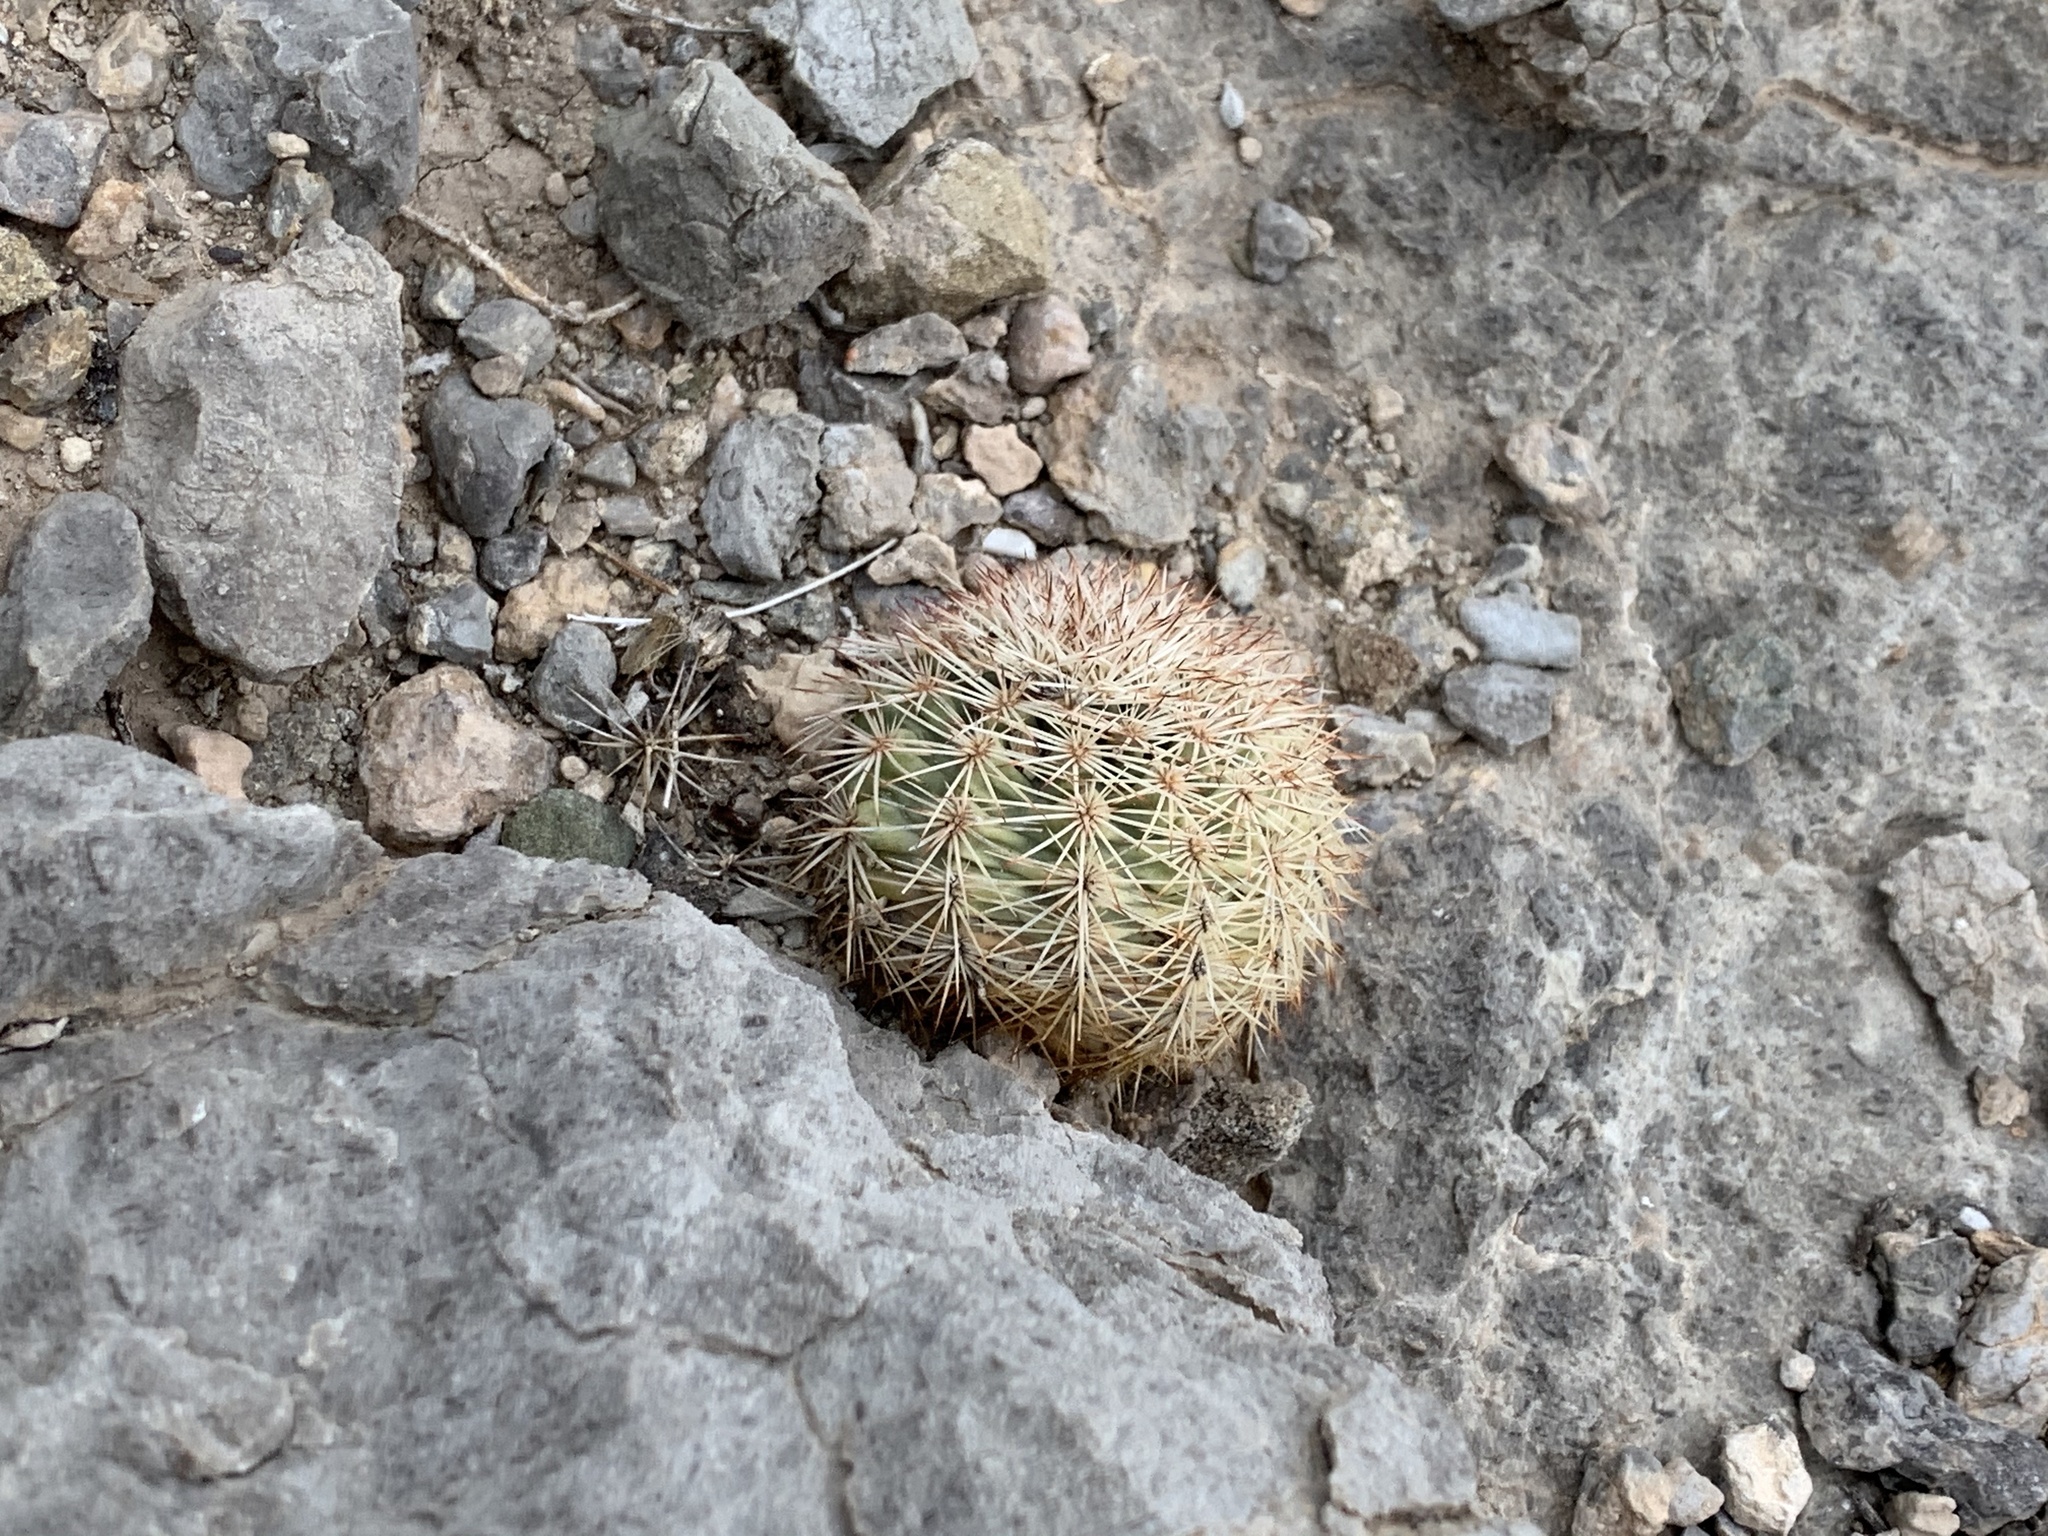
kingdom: Plantae
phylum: Tracheophyta
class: Magnoliopsida
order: Caryophyllales
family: Cactaceae
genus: Echinocereus
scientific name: Echinocereus dasyacanthus
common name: Spiny hedgehog cactus
